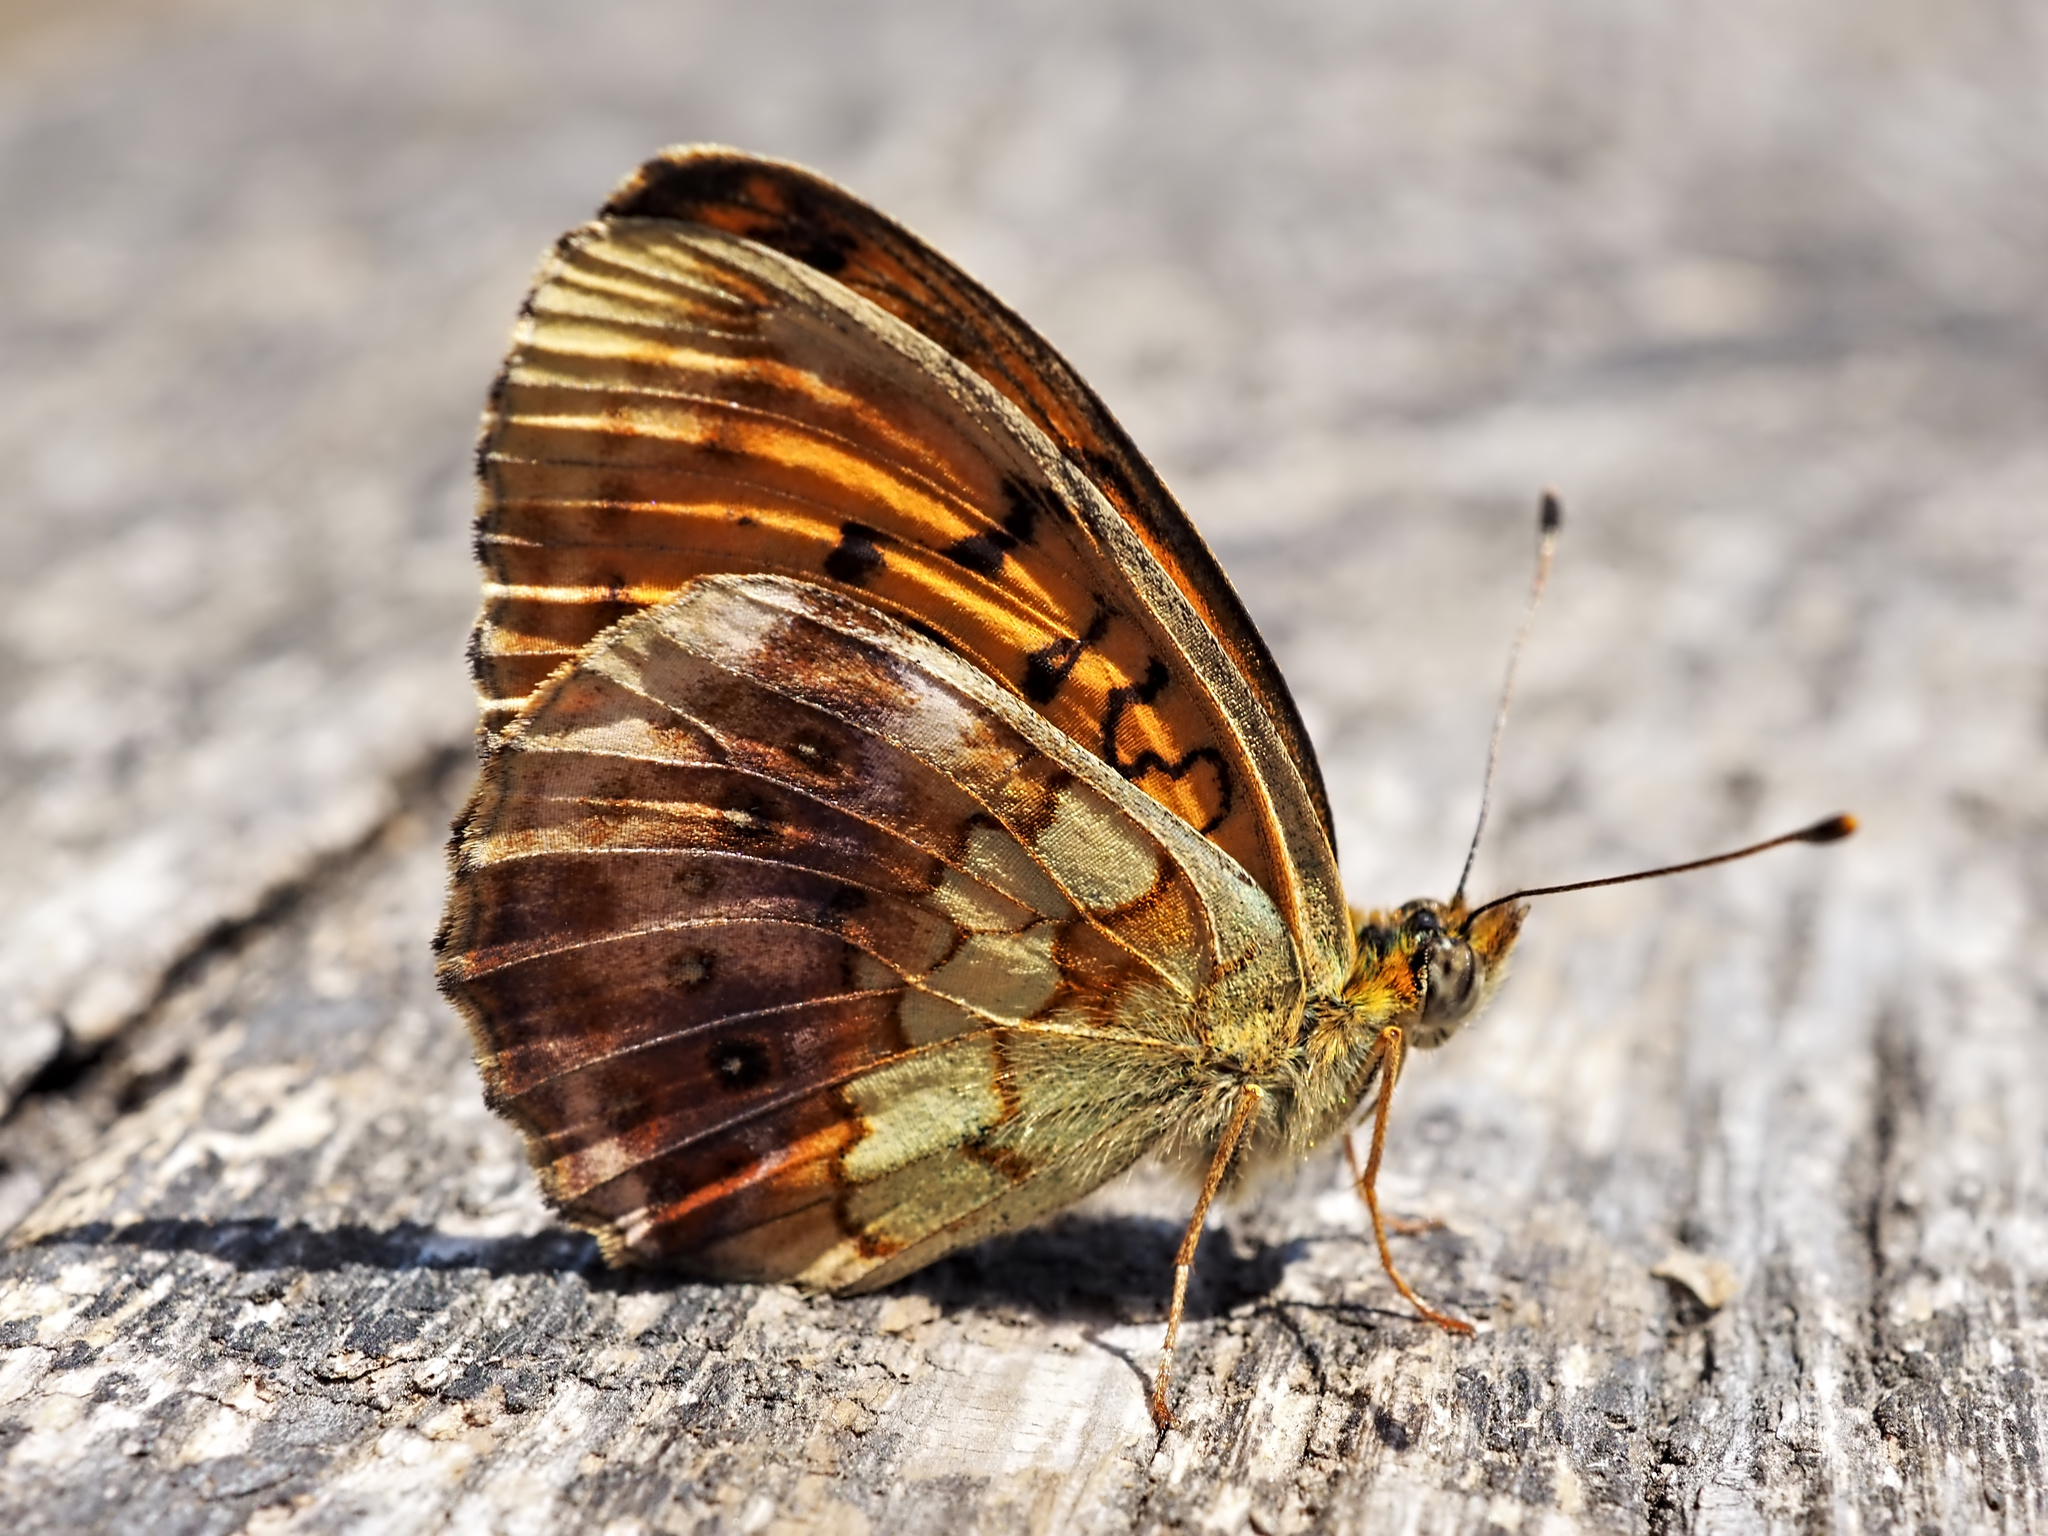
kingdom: Animalia
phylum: Arthropoda
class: Insecta
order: Lepidoptera
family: Nymphalidae
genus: Brenthis
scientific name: Brenthis daphne
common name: Marbled fritillary
